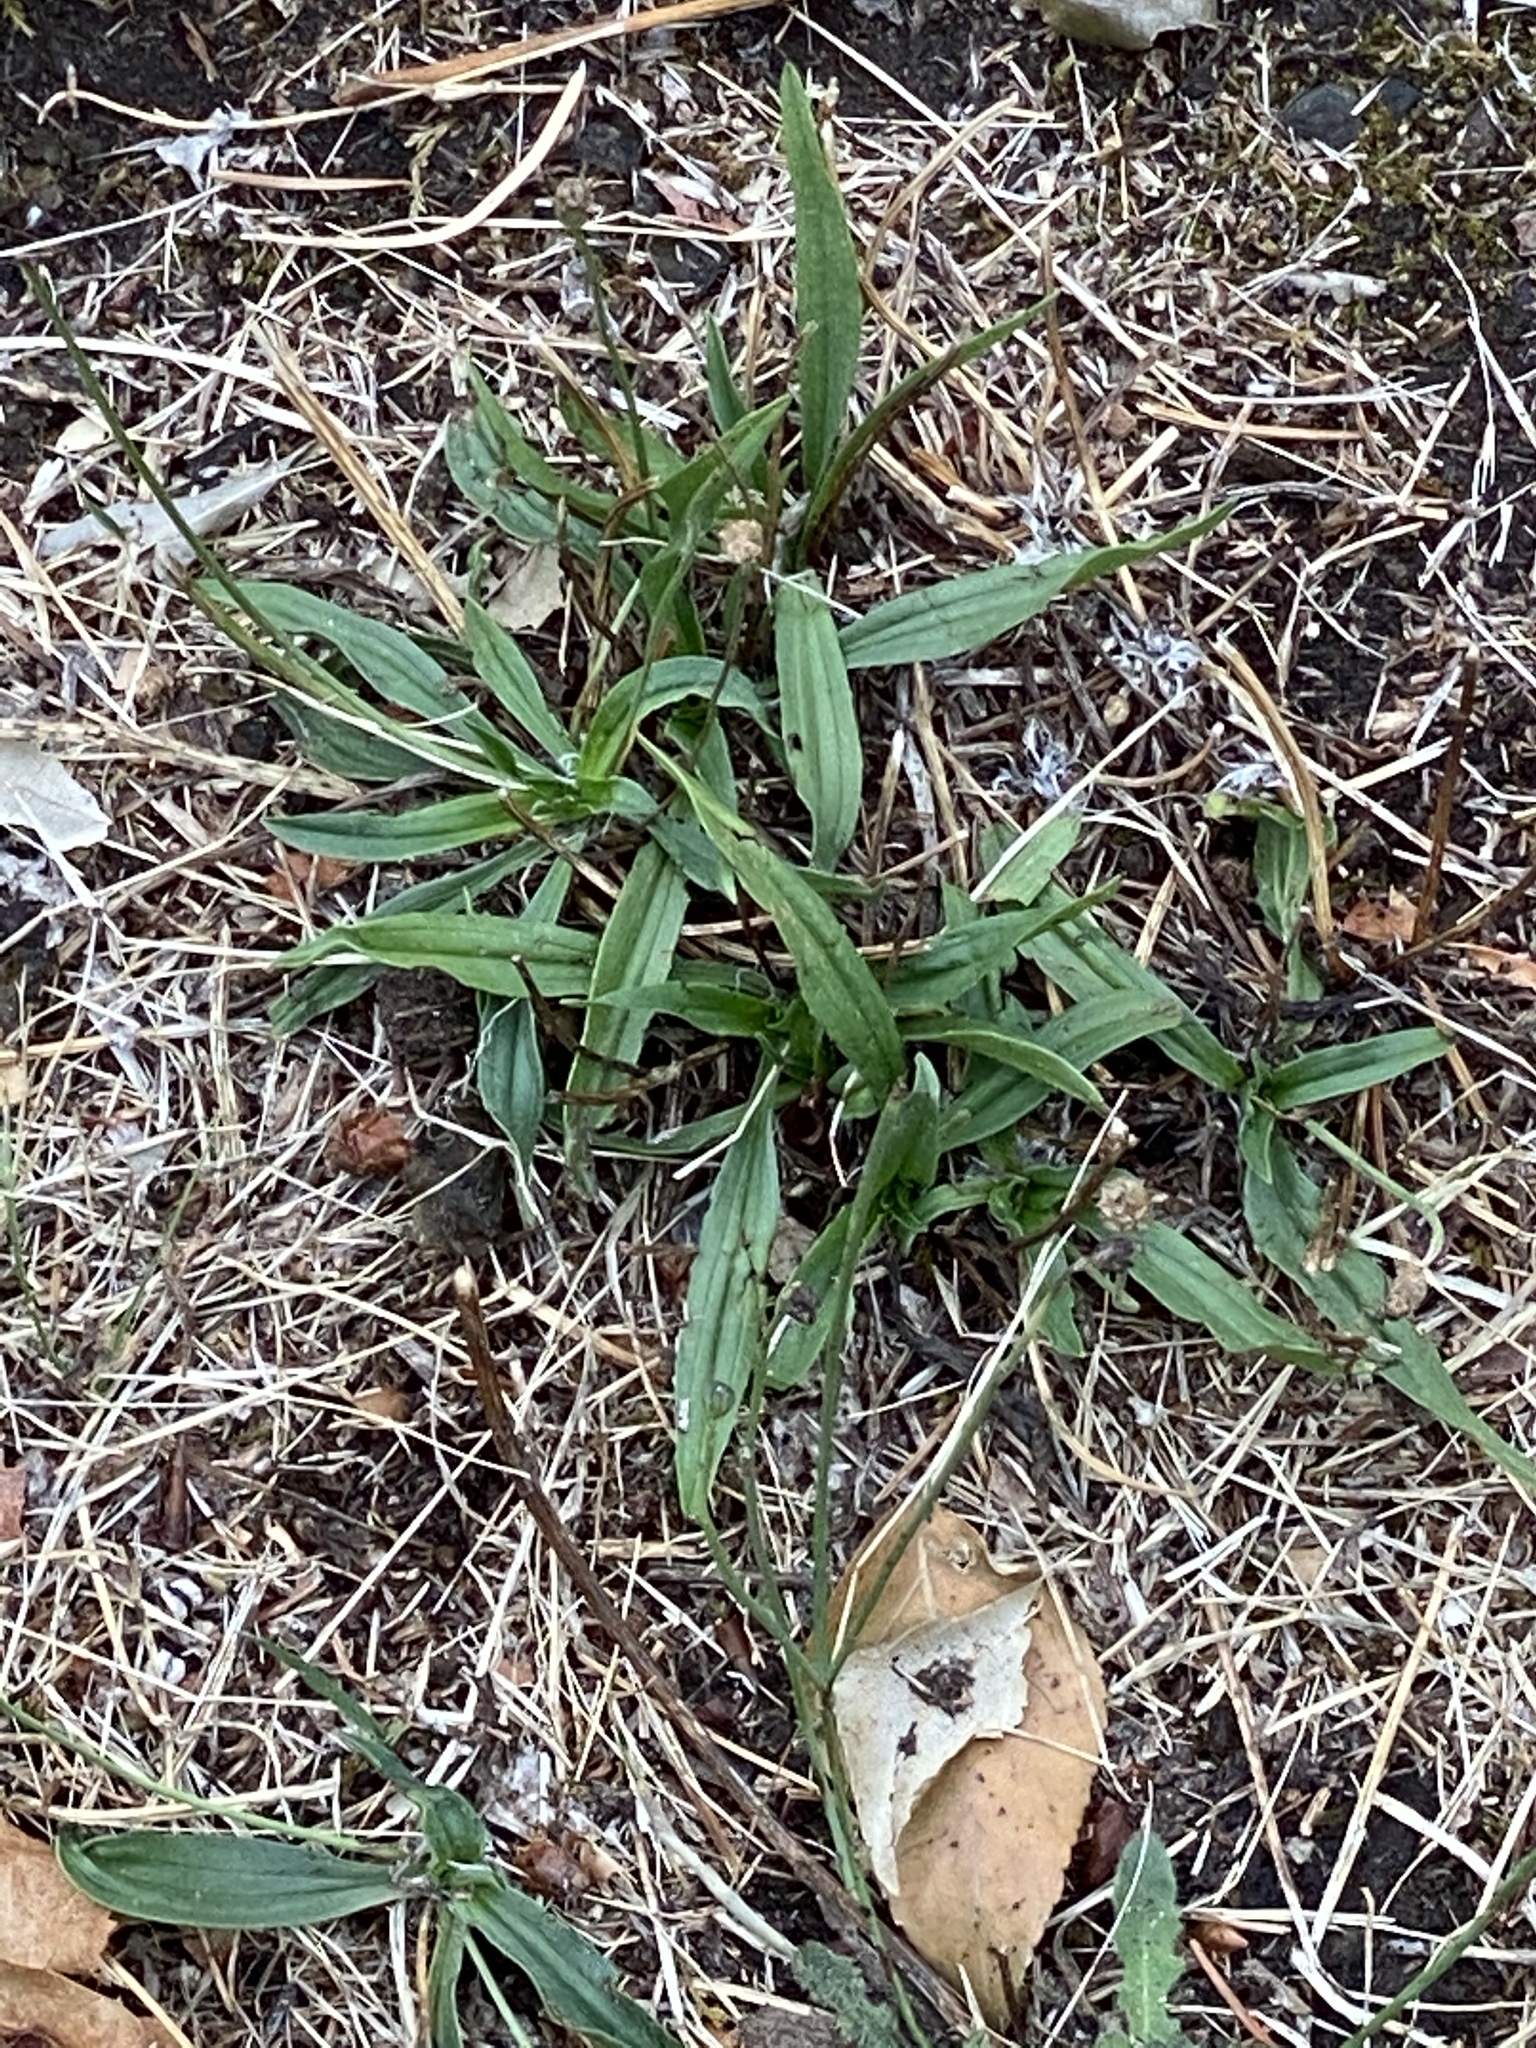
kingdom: Plantae
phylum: Tracheophyta
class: Magnoliopsida
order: Lamiales
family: Plantaginaceae
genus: Plantago
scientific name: Plantago lanceolata
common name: Ribwort plantain
